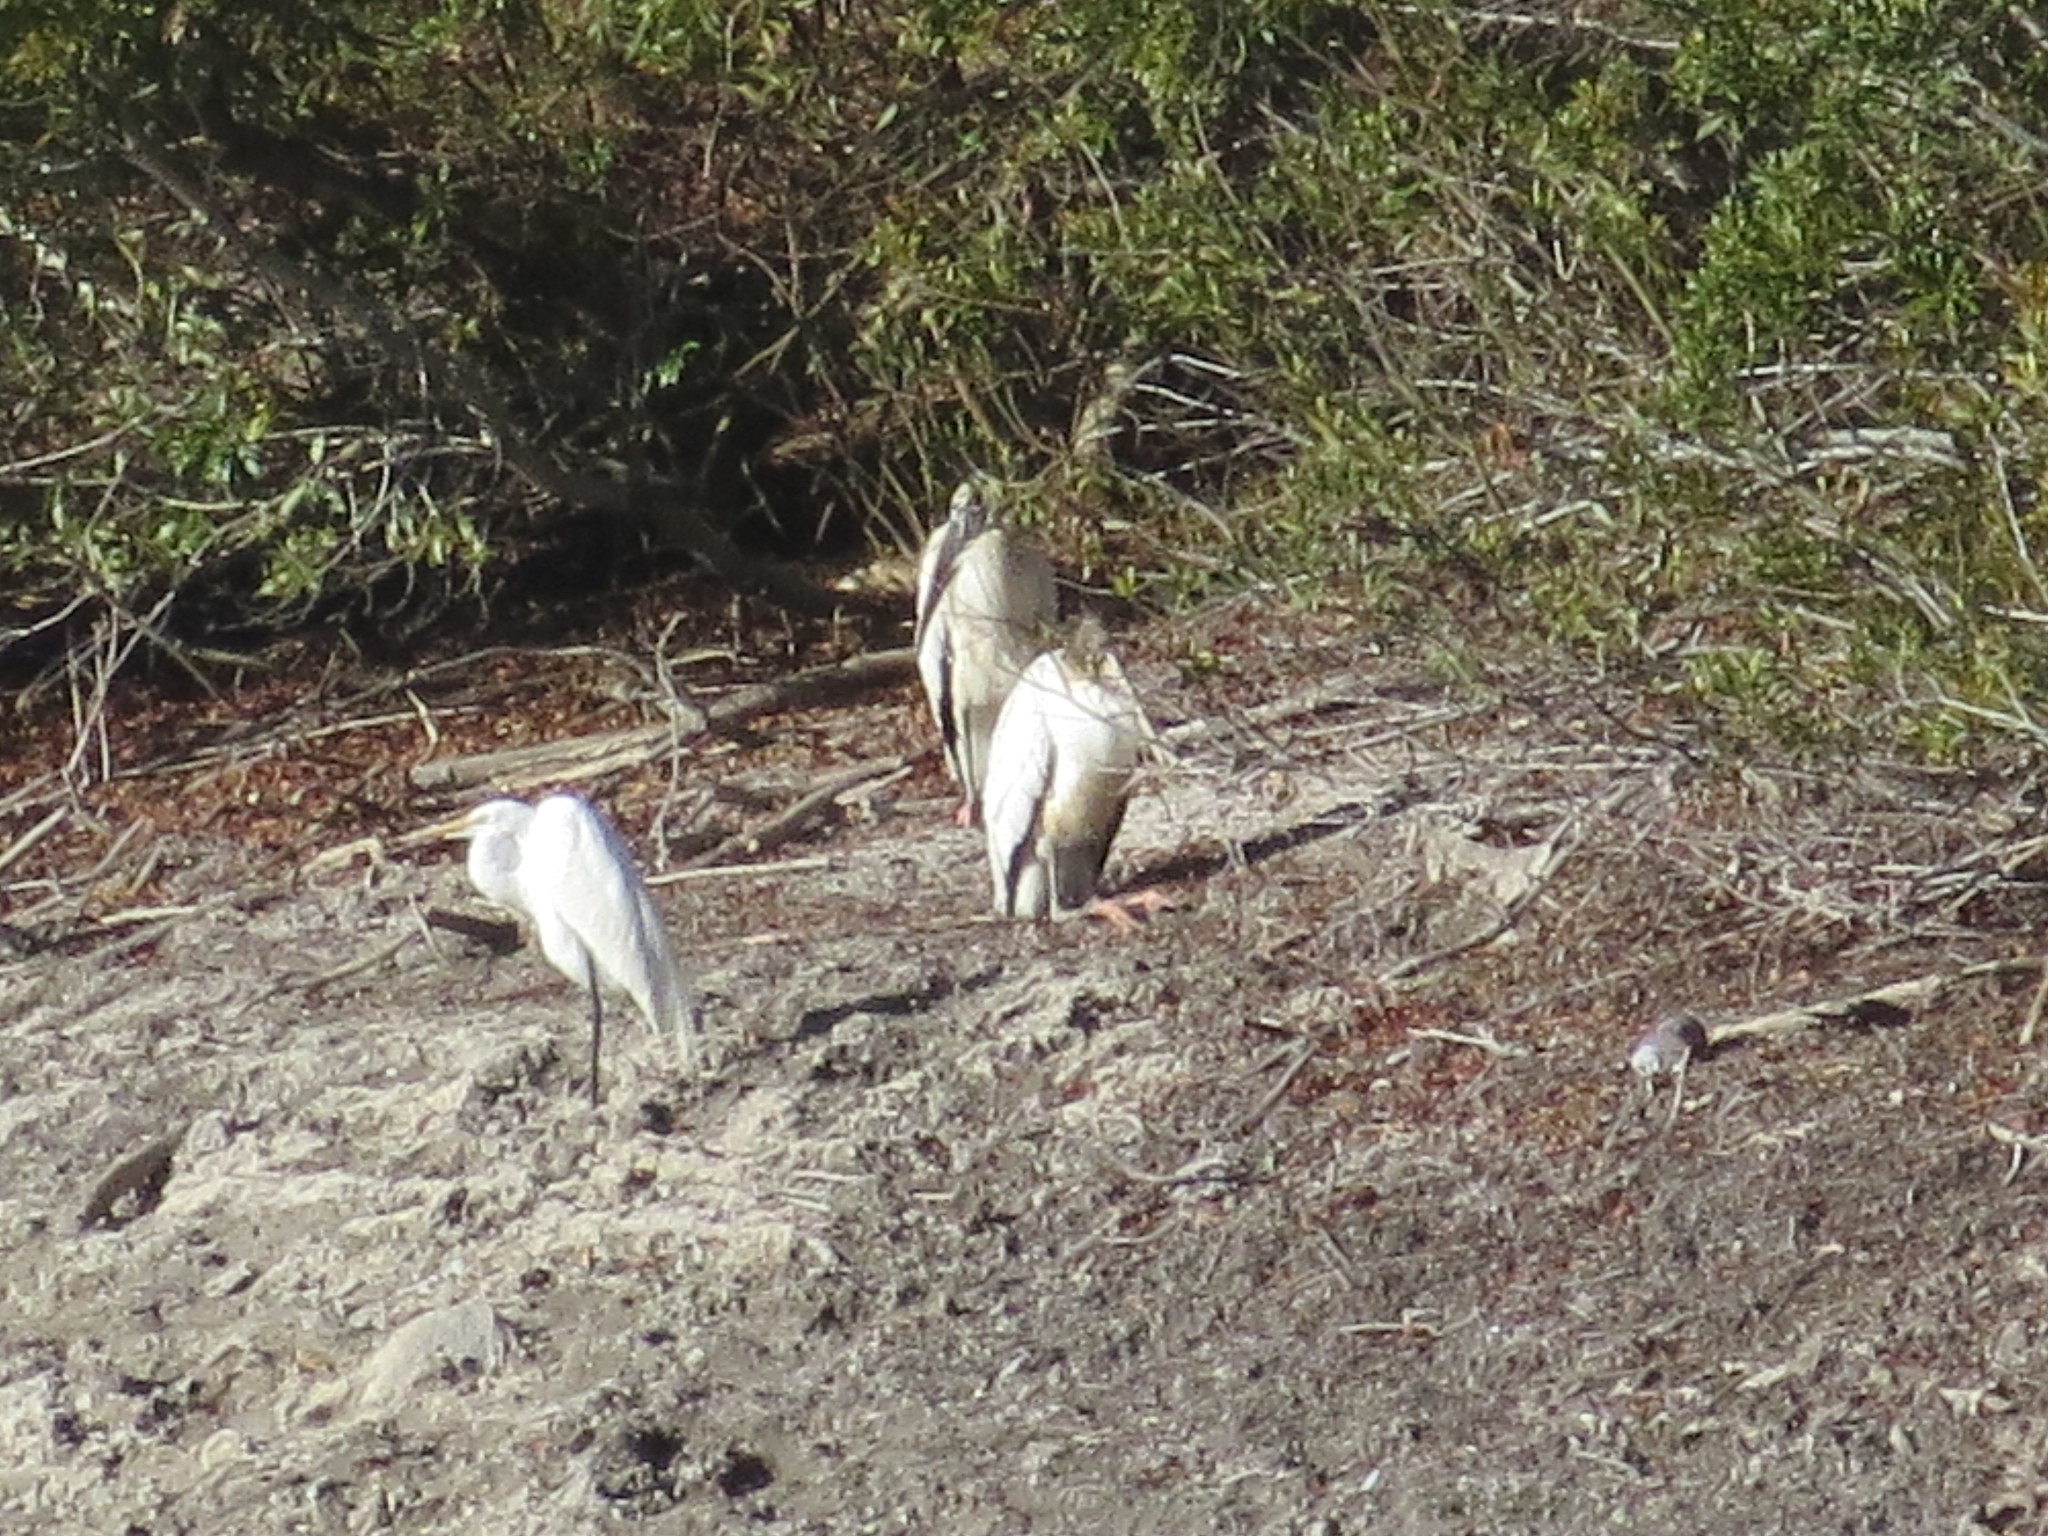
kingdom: Animalia
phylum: Chordata
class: Aves
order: Ciconiiformes
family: Ciconiidae
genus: Mycteria
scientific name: Mycteria americana
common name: Wood stork
